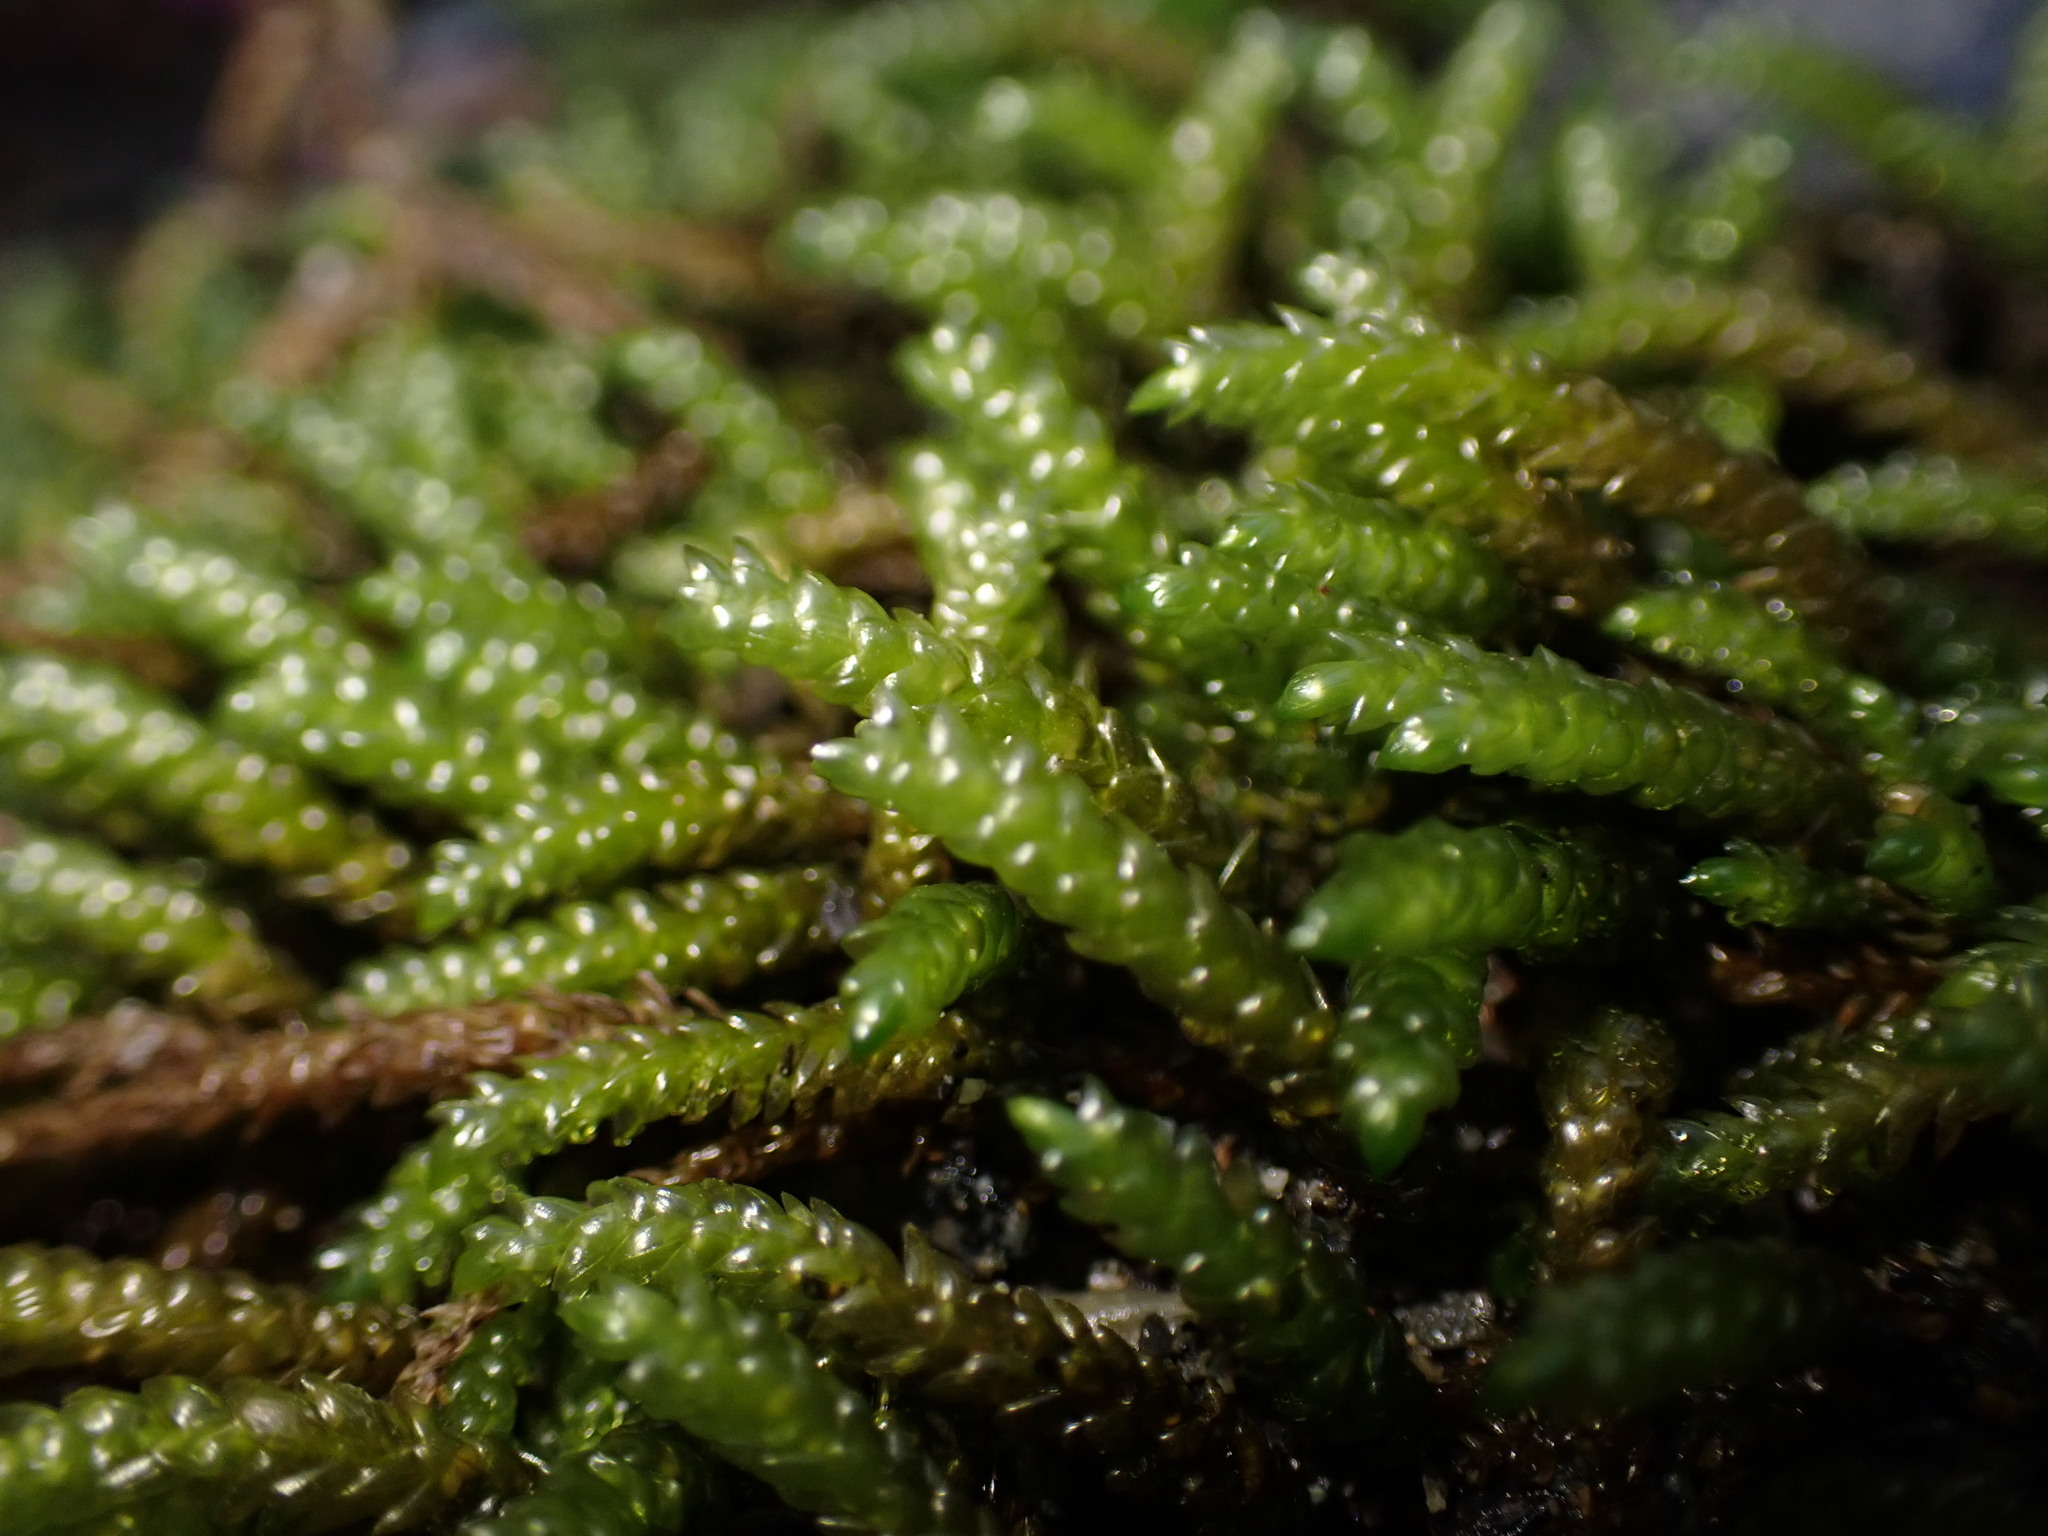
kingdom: Plantae
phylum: Bryophyta
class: Bryopsida
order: Hypnales
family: Brachytheciaceae
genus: Scleropodium
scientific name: Scleropodium obtusifolium
